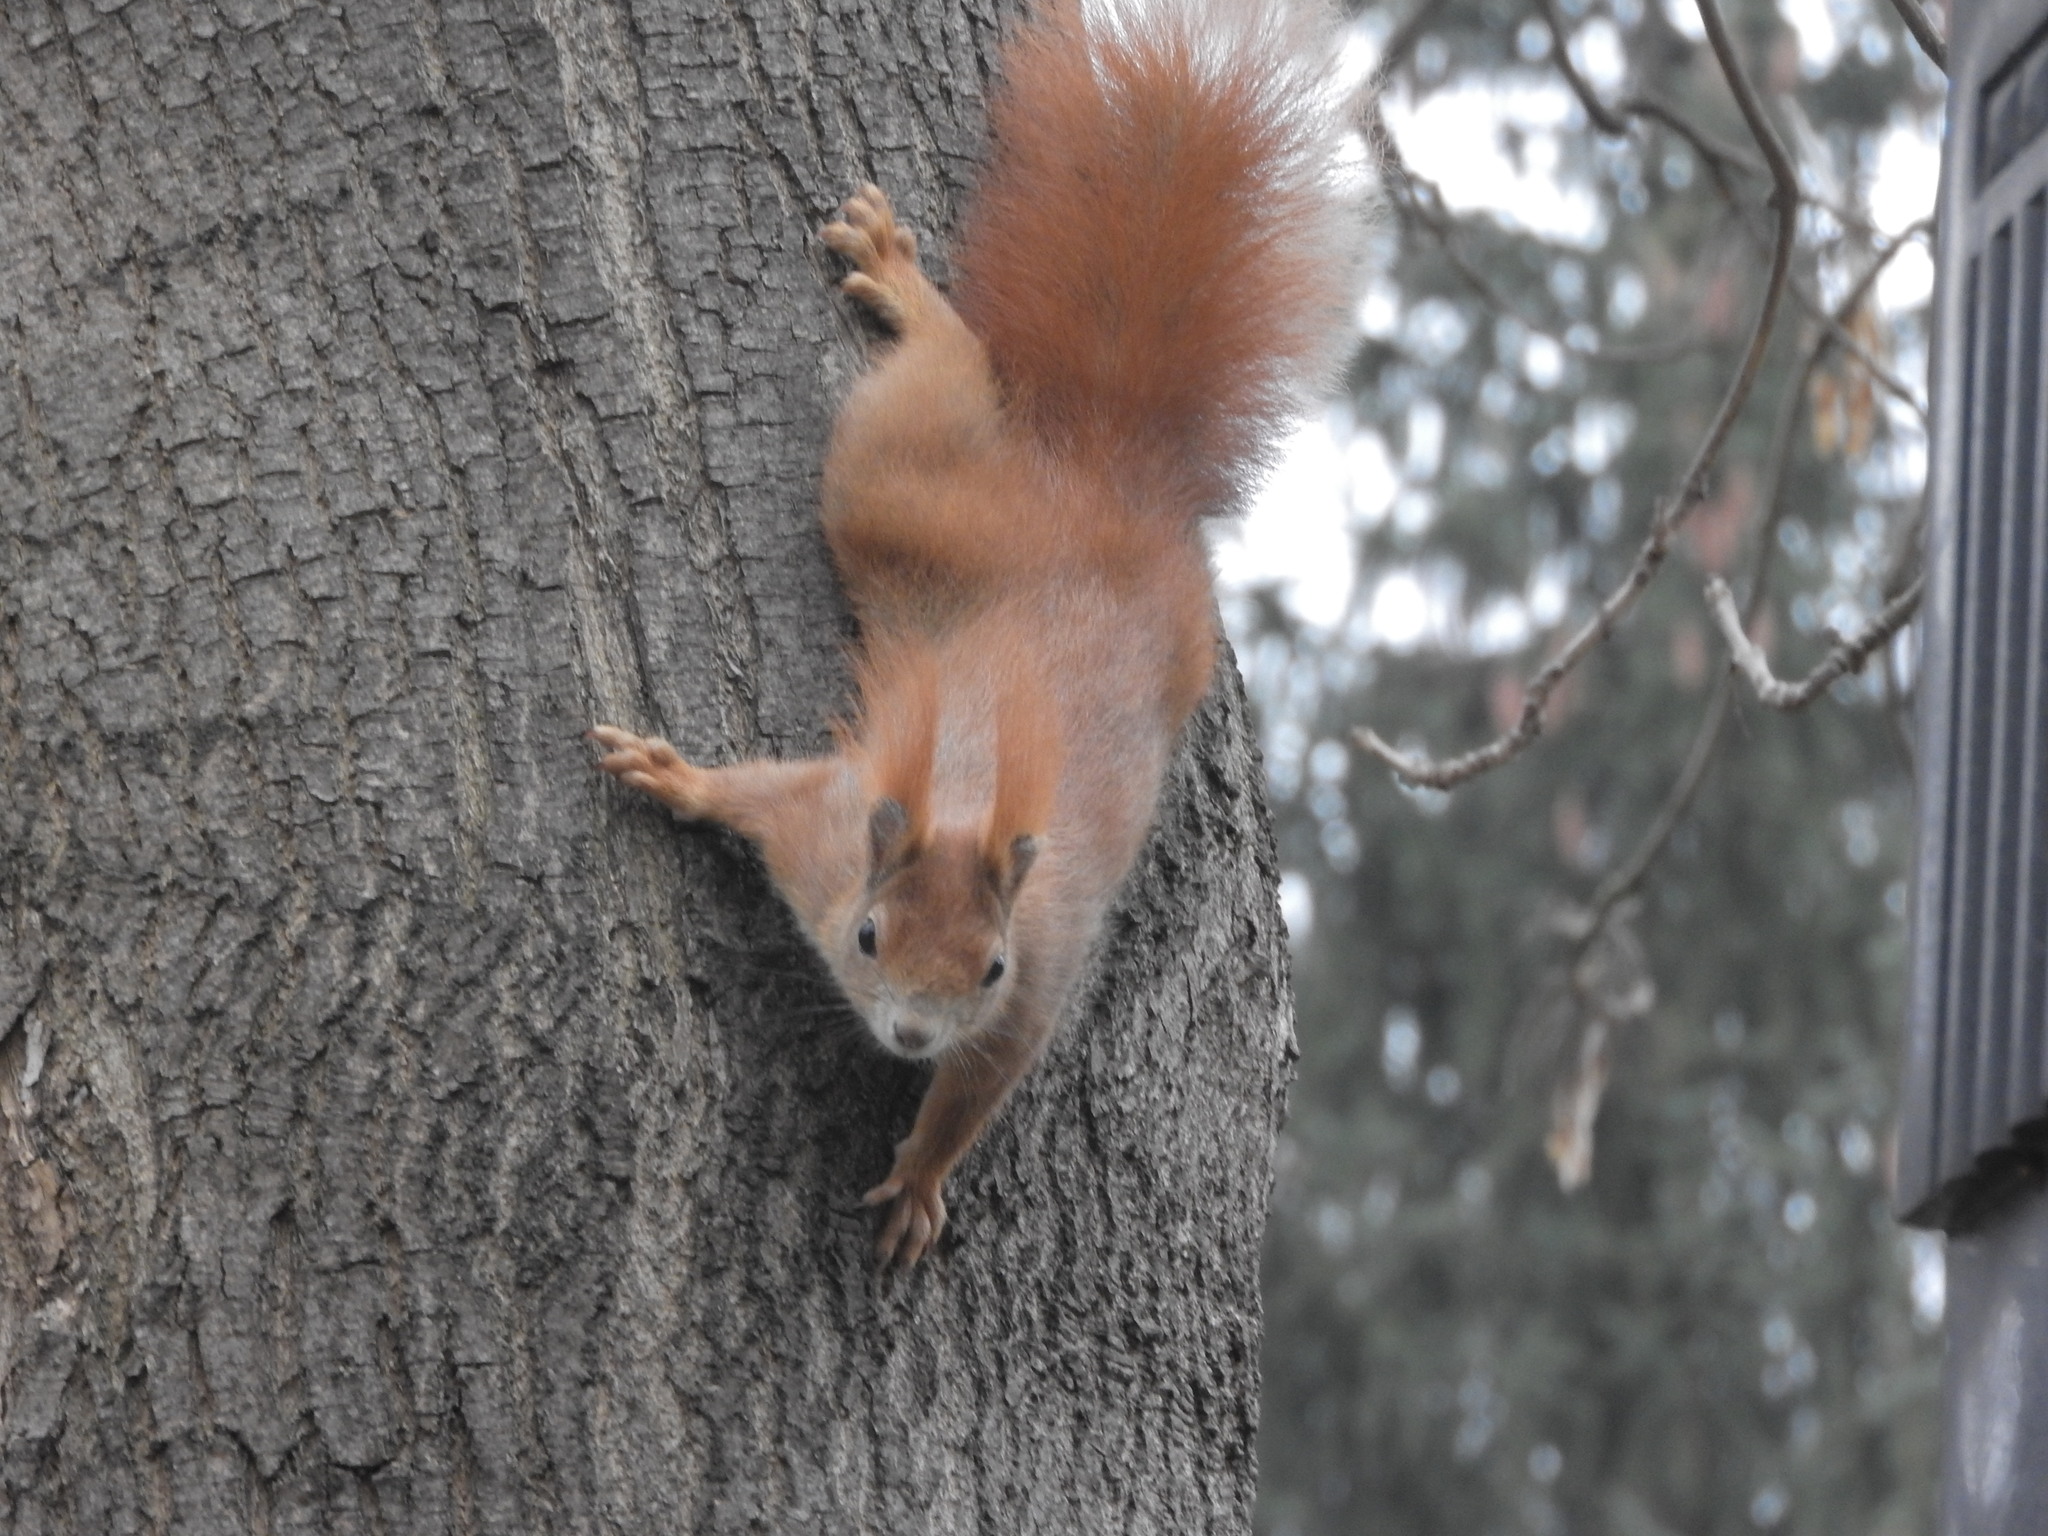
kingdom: Animalia
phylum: Chordata
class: Mammalia
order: Rodentia
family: Sciuridae
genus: Sciurus
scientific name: Sciurus vulgaris
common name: Eurasian red squirrel
